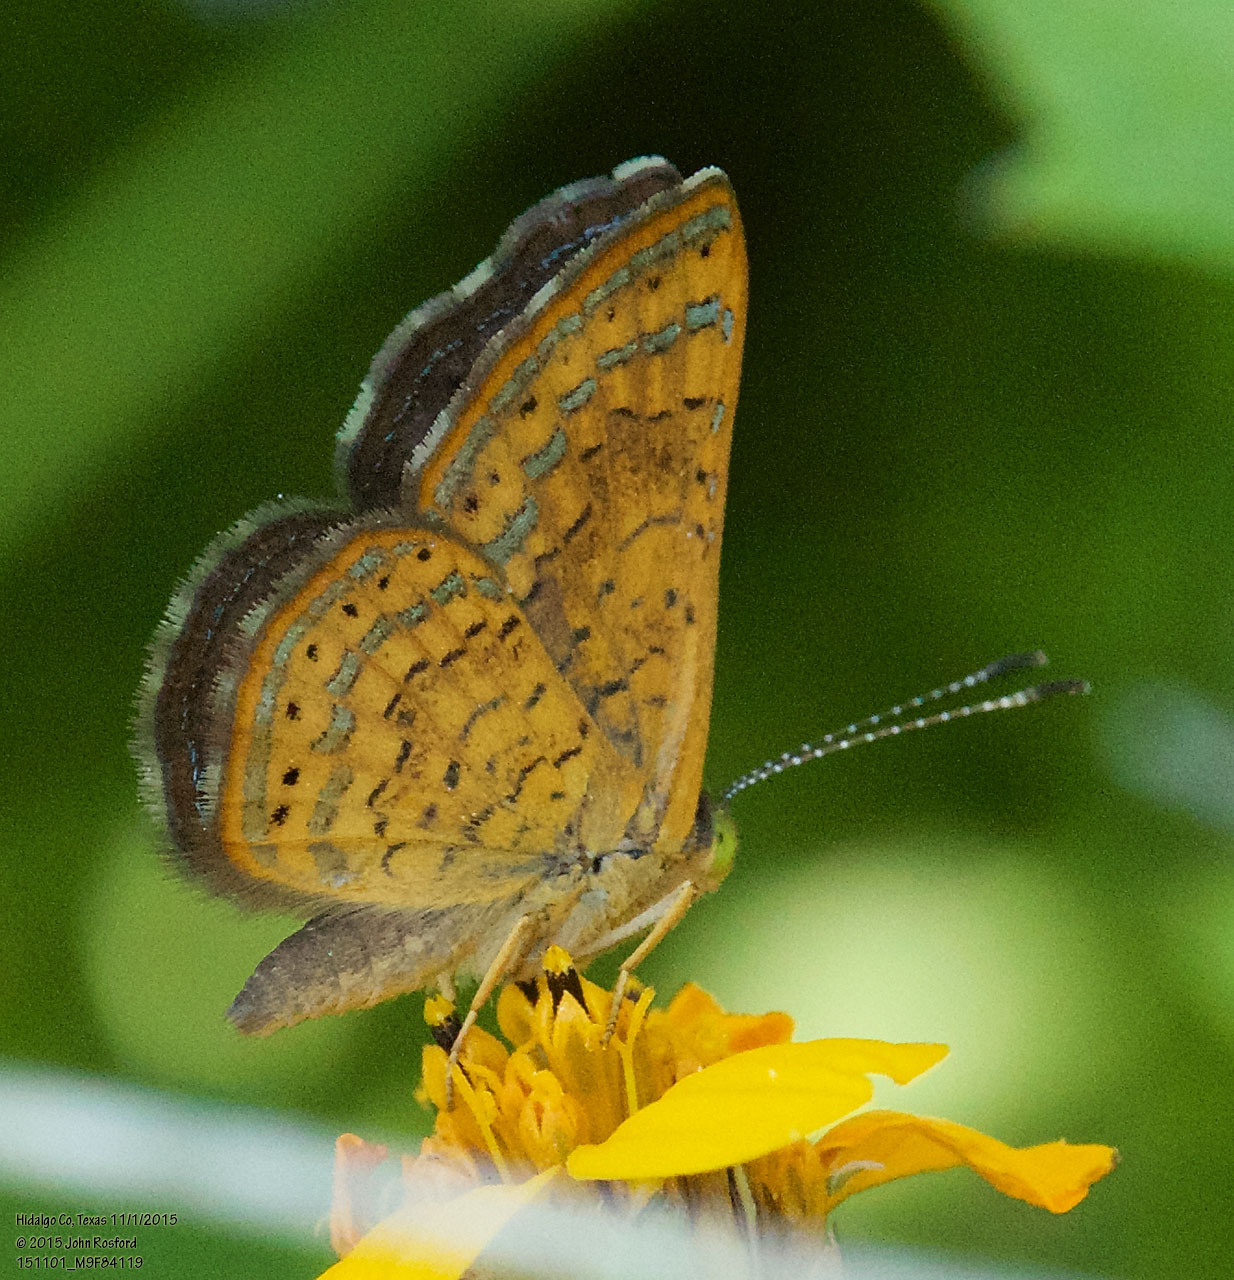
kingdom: Animalia
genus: Calephelis
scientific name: Calephelis nemesis
